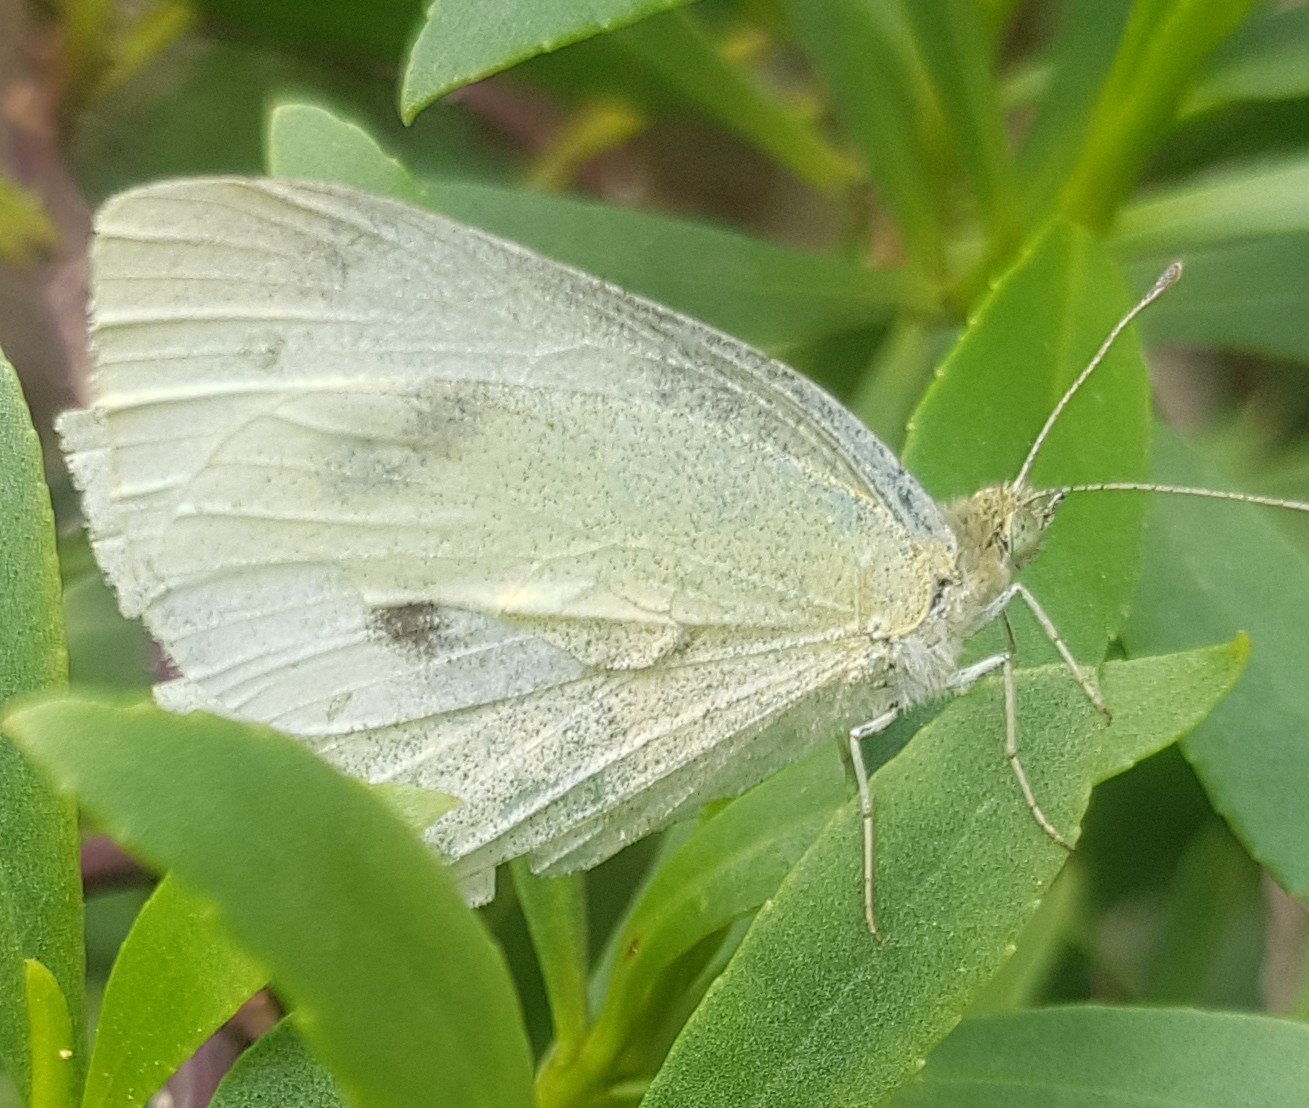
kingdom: Animalia
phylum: Arthropoda
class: Insecta
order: Lepidoptera
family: Pieridae
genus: Pieris
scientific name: Pieris rapae
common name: Small white
